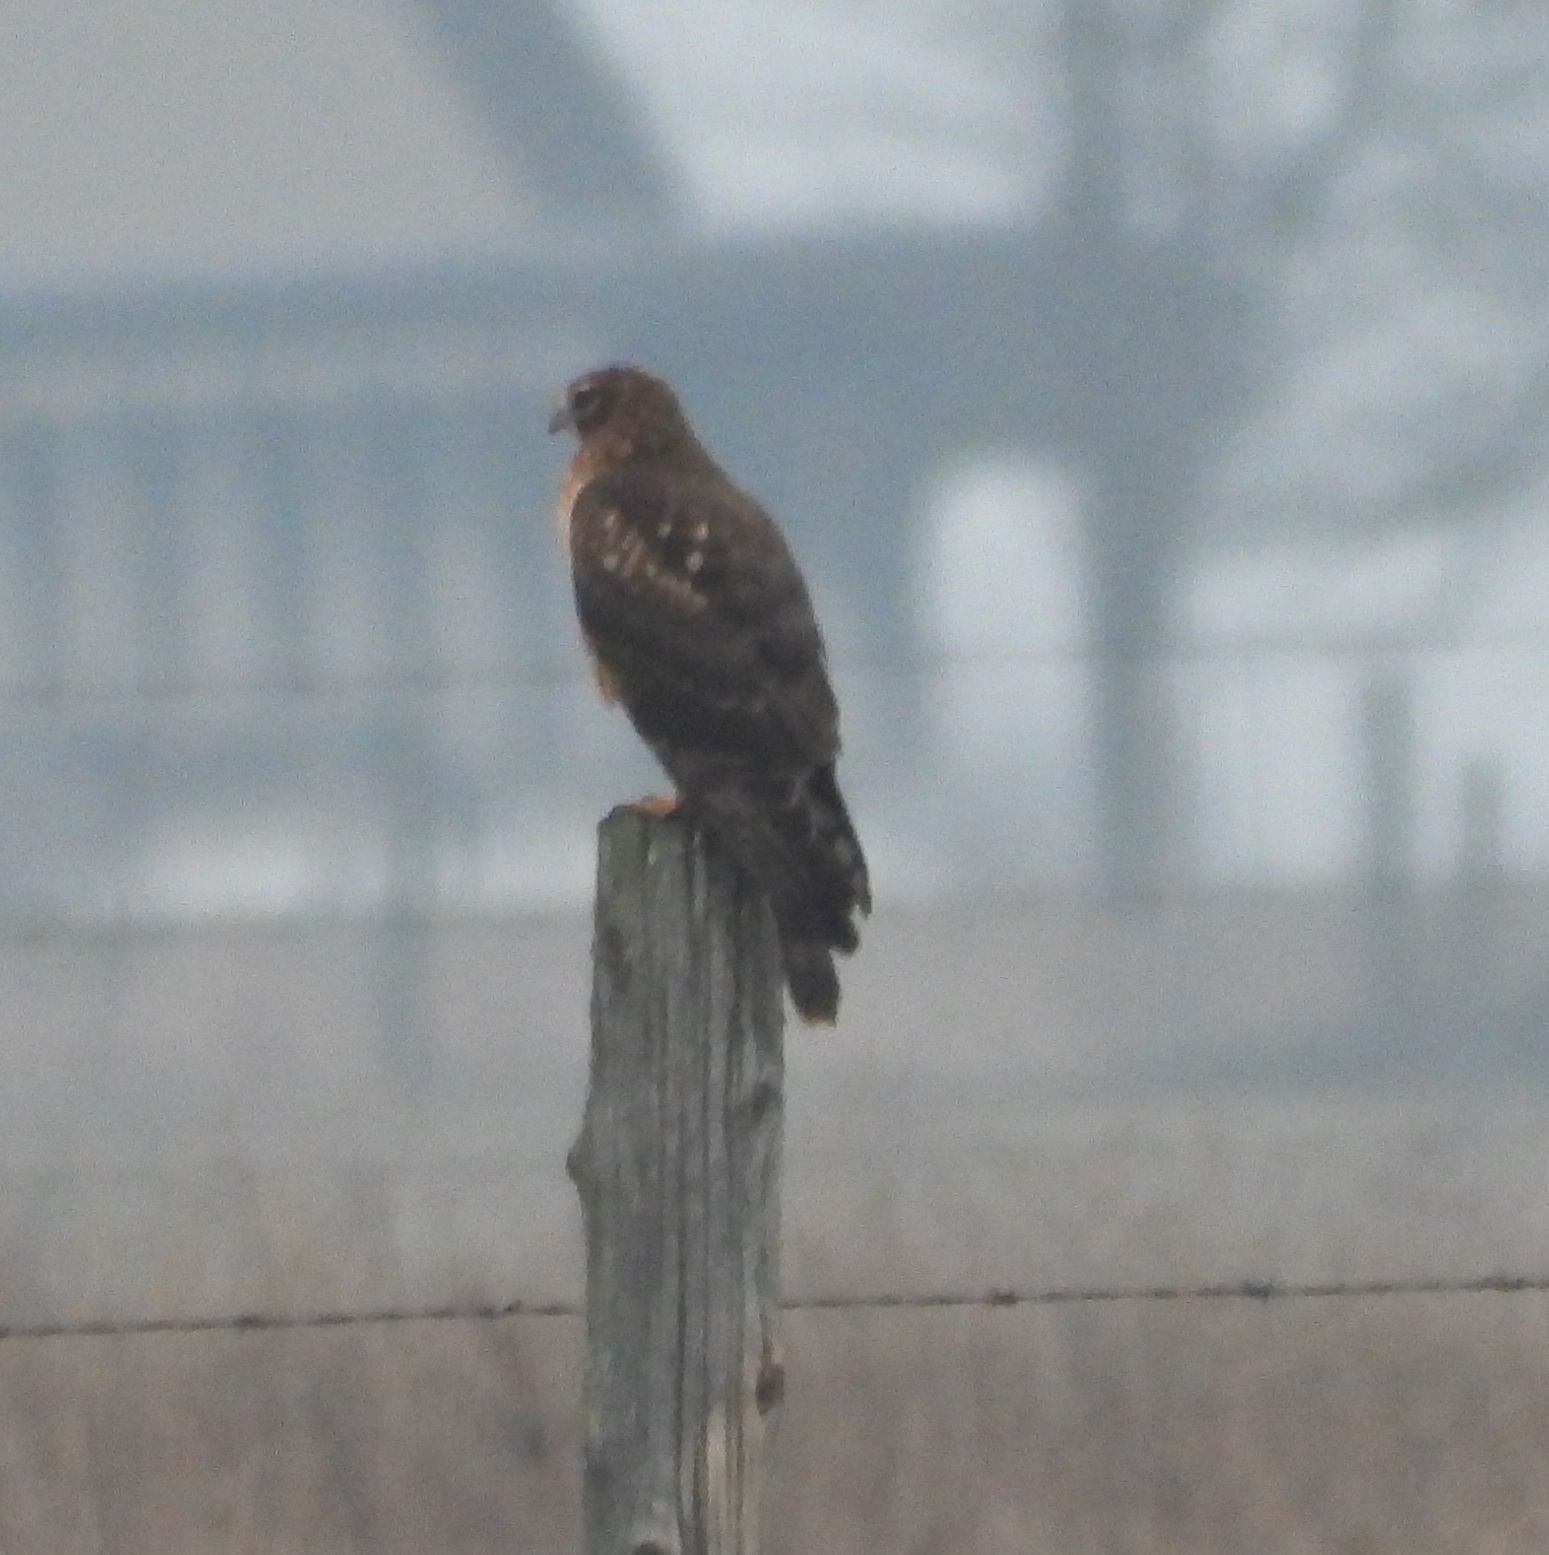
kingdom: Animalia
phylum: Chordata
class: Aves
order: Accipitriformes
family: Accipitridae
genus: Circus
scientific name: Circus cyaneus
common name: Hen harrier
